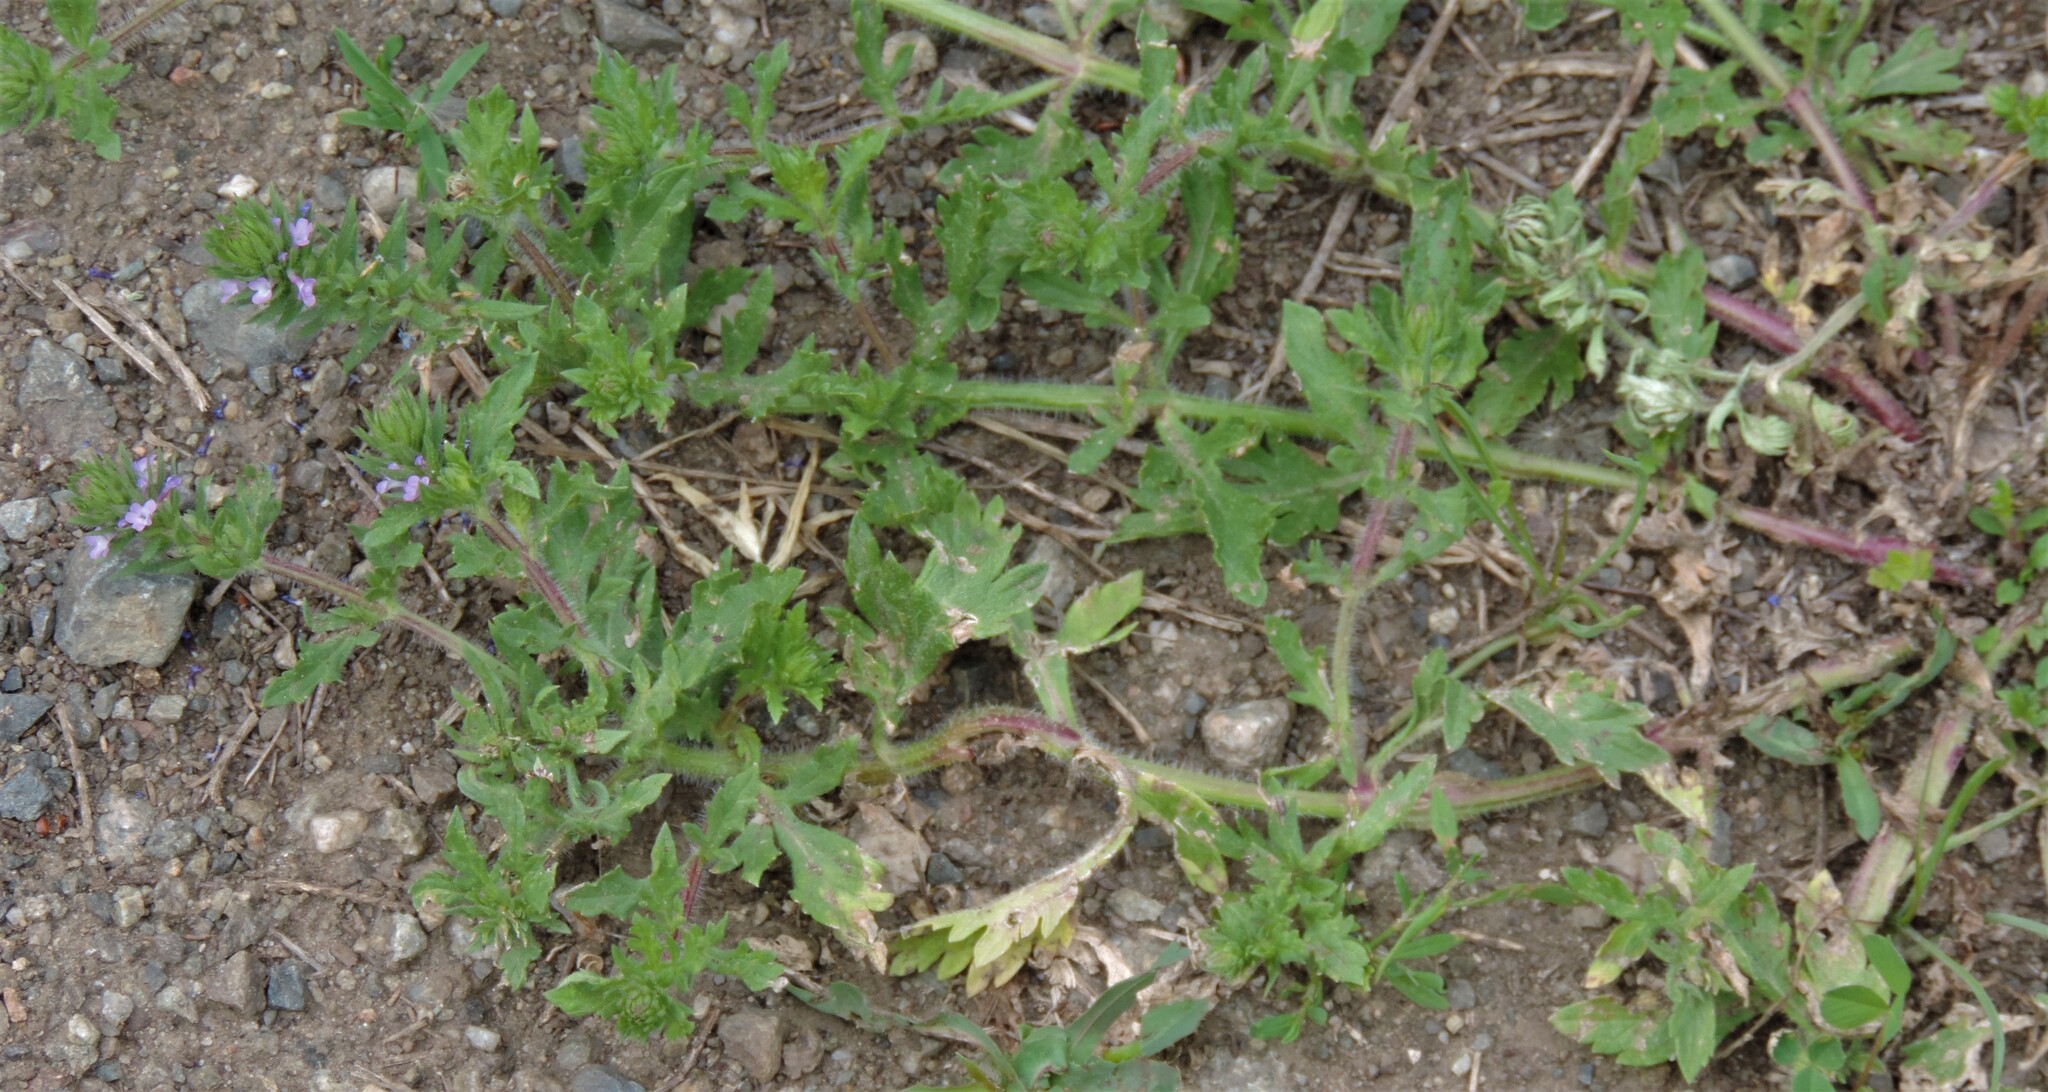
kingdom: Plantae
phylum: Tracheophyta
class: Magnoliopsida
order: Lamiales
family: Verbenaceae
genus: Verbena
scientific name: Verbena bracteata
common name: Bracted vervain
